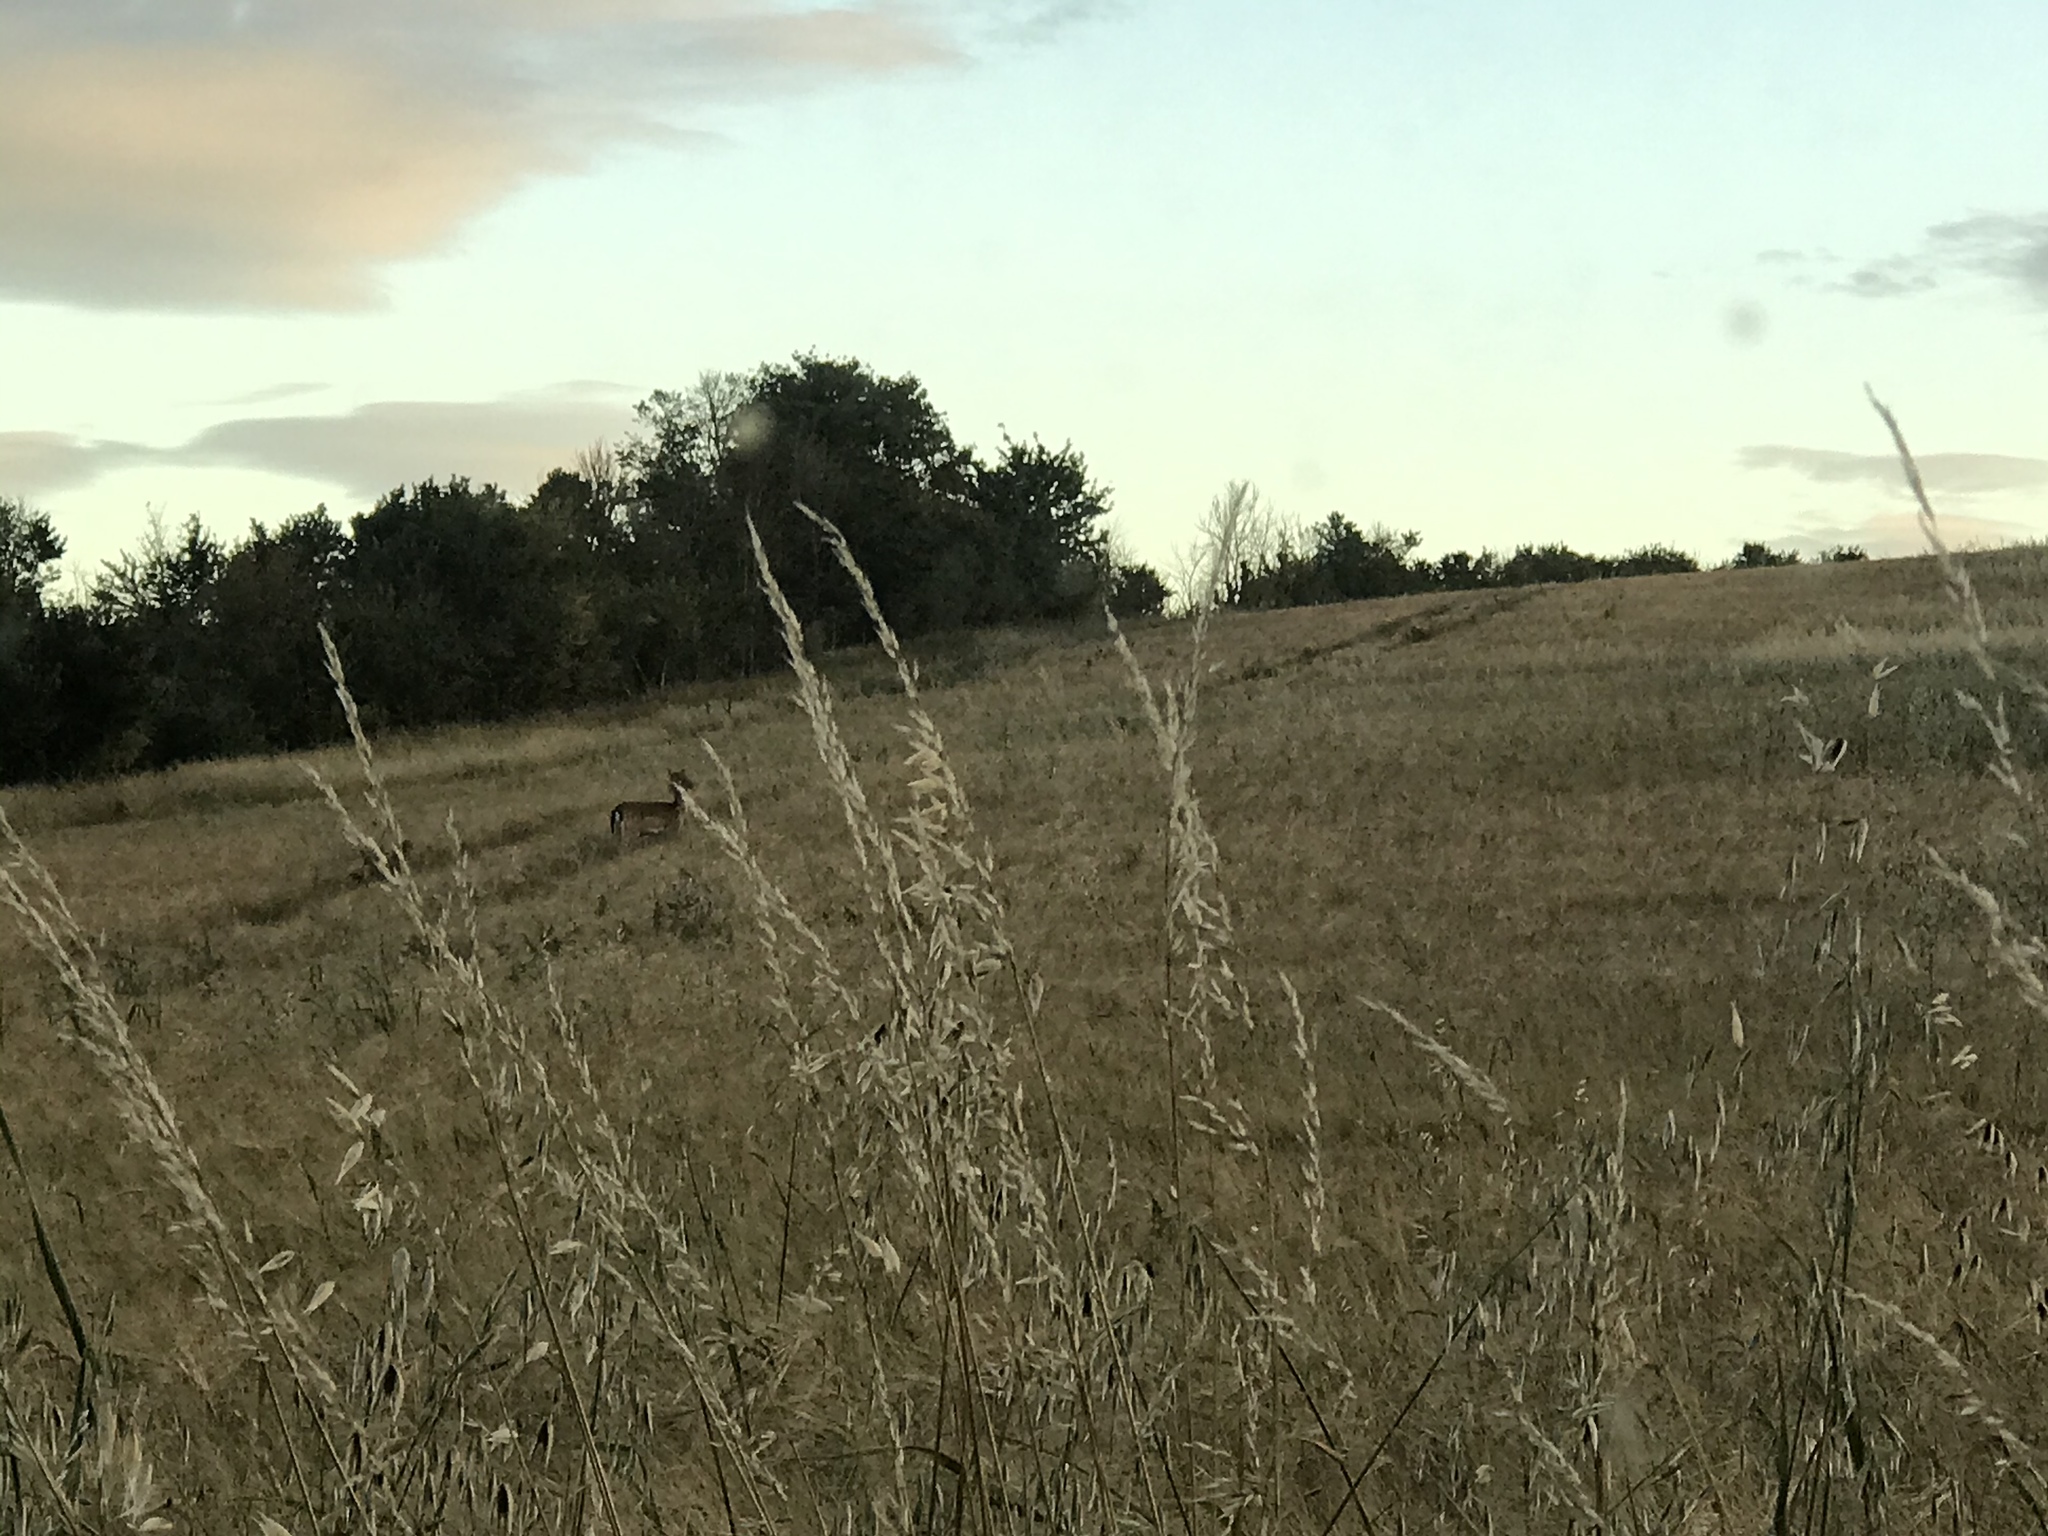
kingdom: Animalia
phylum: Chordata
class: Mammalia
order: Artiodactyla
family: Cervidae
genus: Dama
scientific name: Dama dama
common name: Fallow deer
